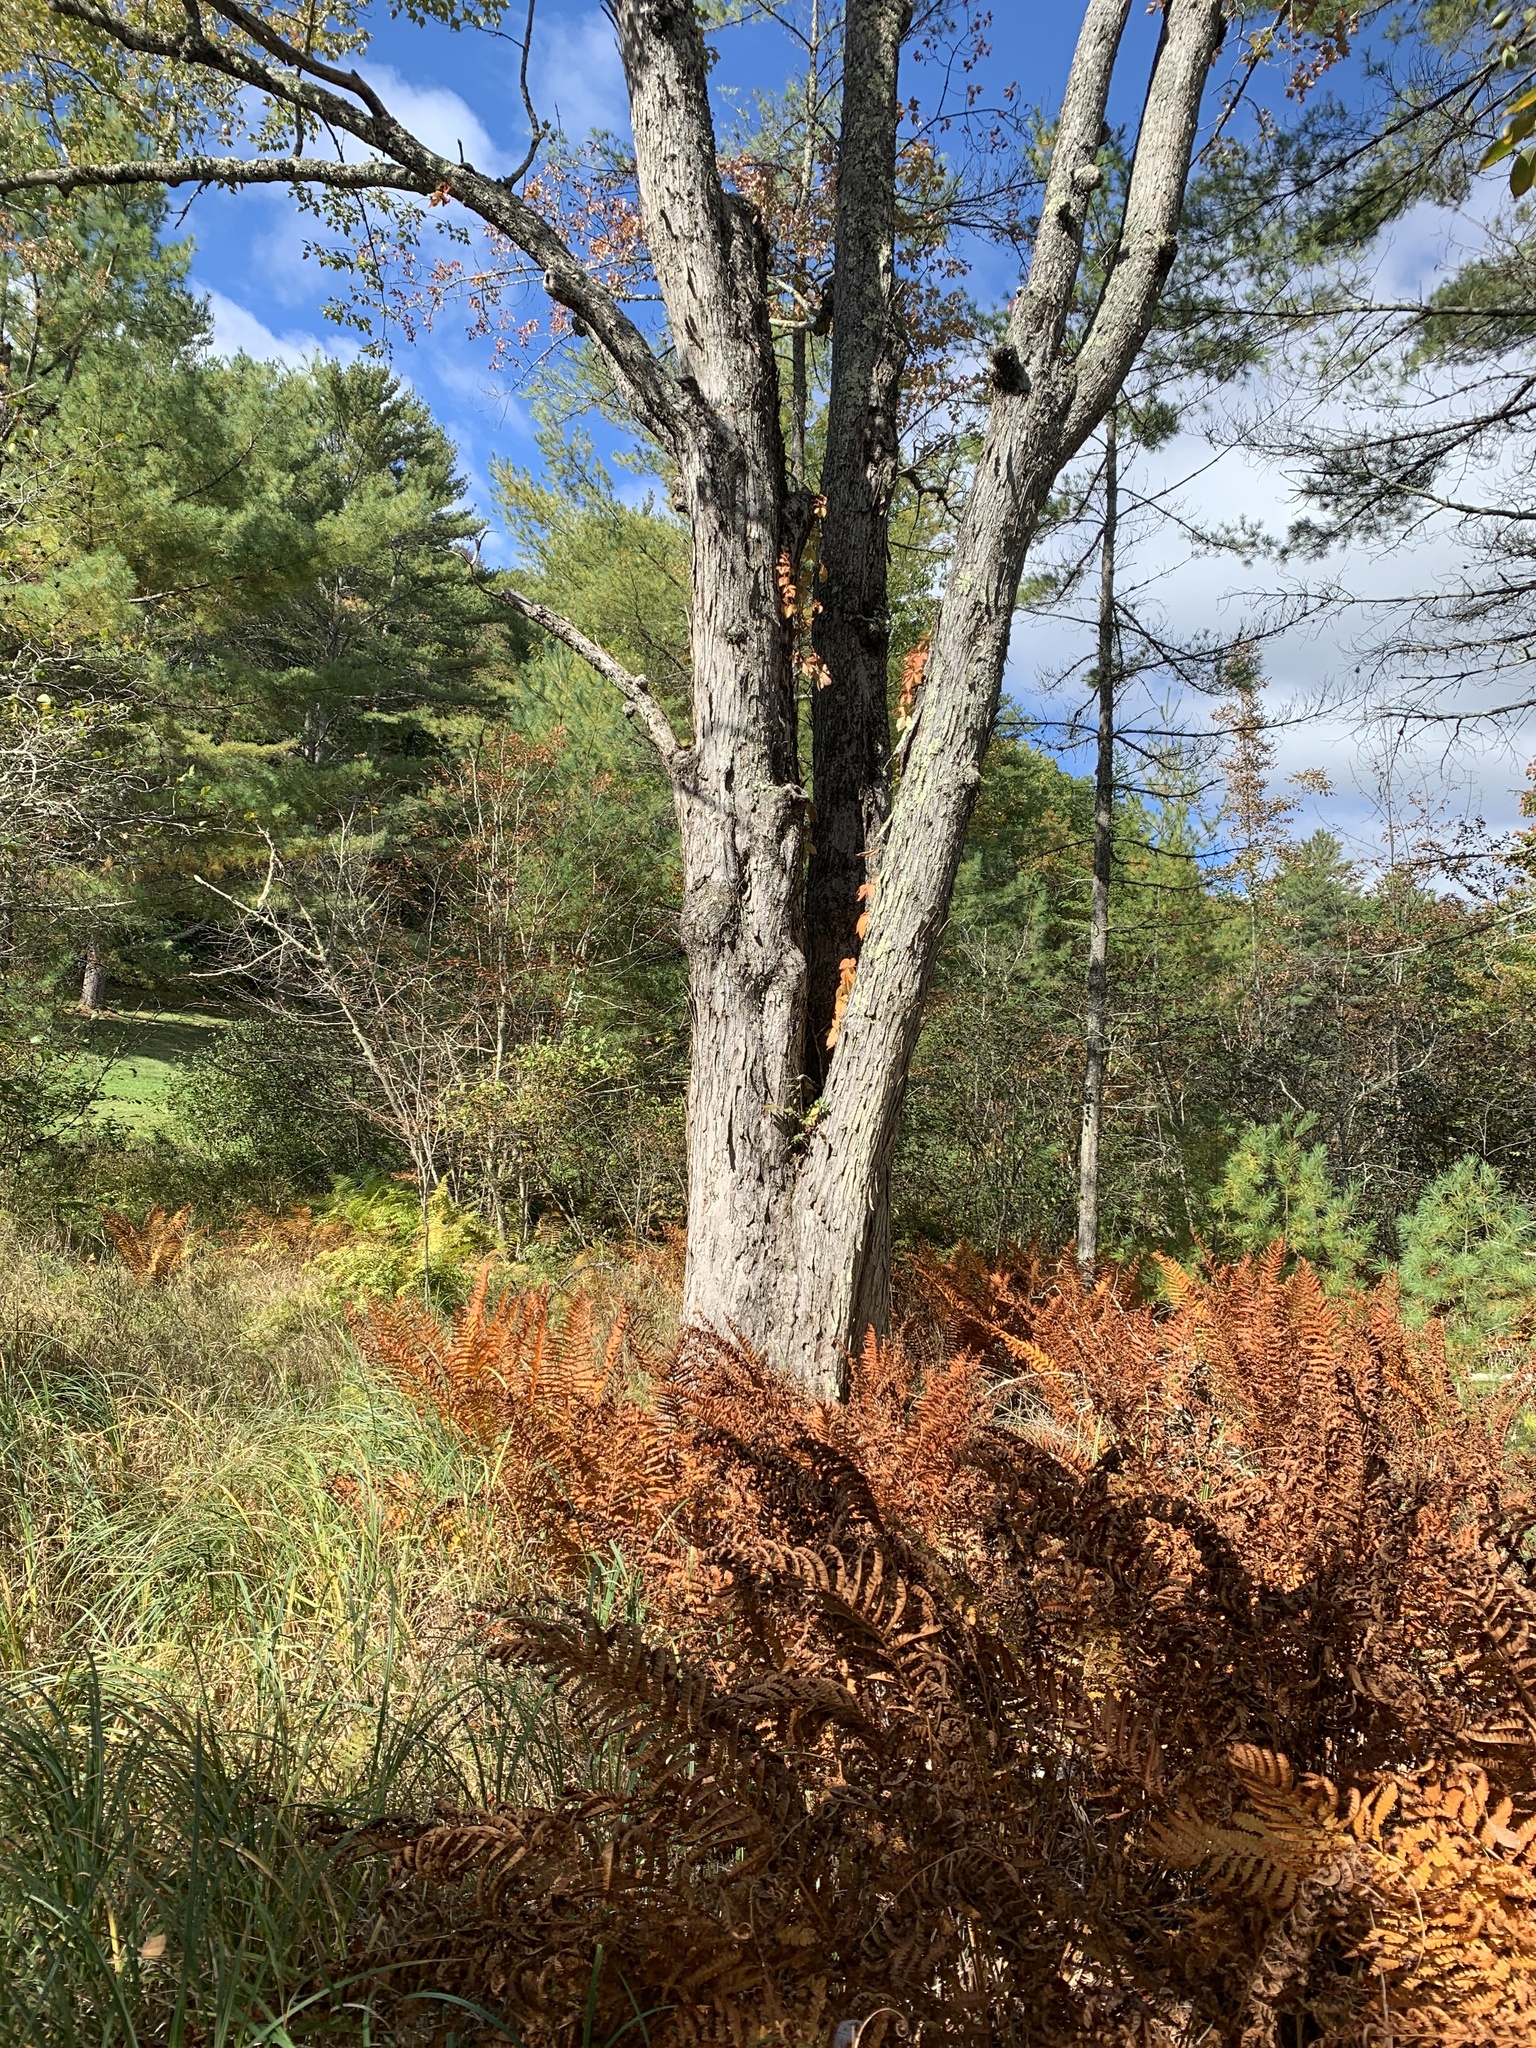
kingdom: Plantae
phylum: Tracheophyta
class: Magnoliopsida
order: Sapindales
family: Sapindaceae
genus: Acer
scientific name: Acer rubrum
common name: Red maple
